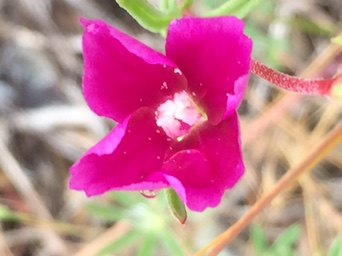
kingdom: Plantae
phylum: Tracheophyta
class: Magnoliopsida
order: Myrtales
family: Onagraceae
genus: Clarkia
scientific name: Clarkia purpurea
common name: Purple clarkia
